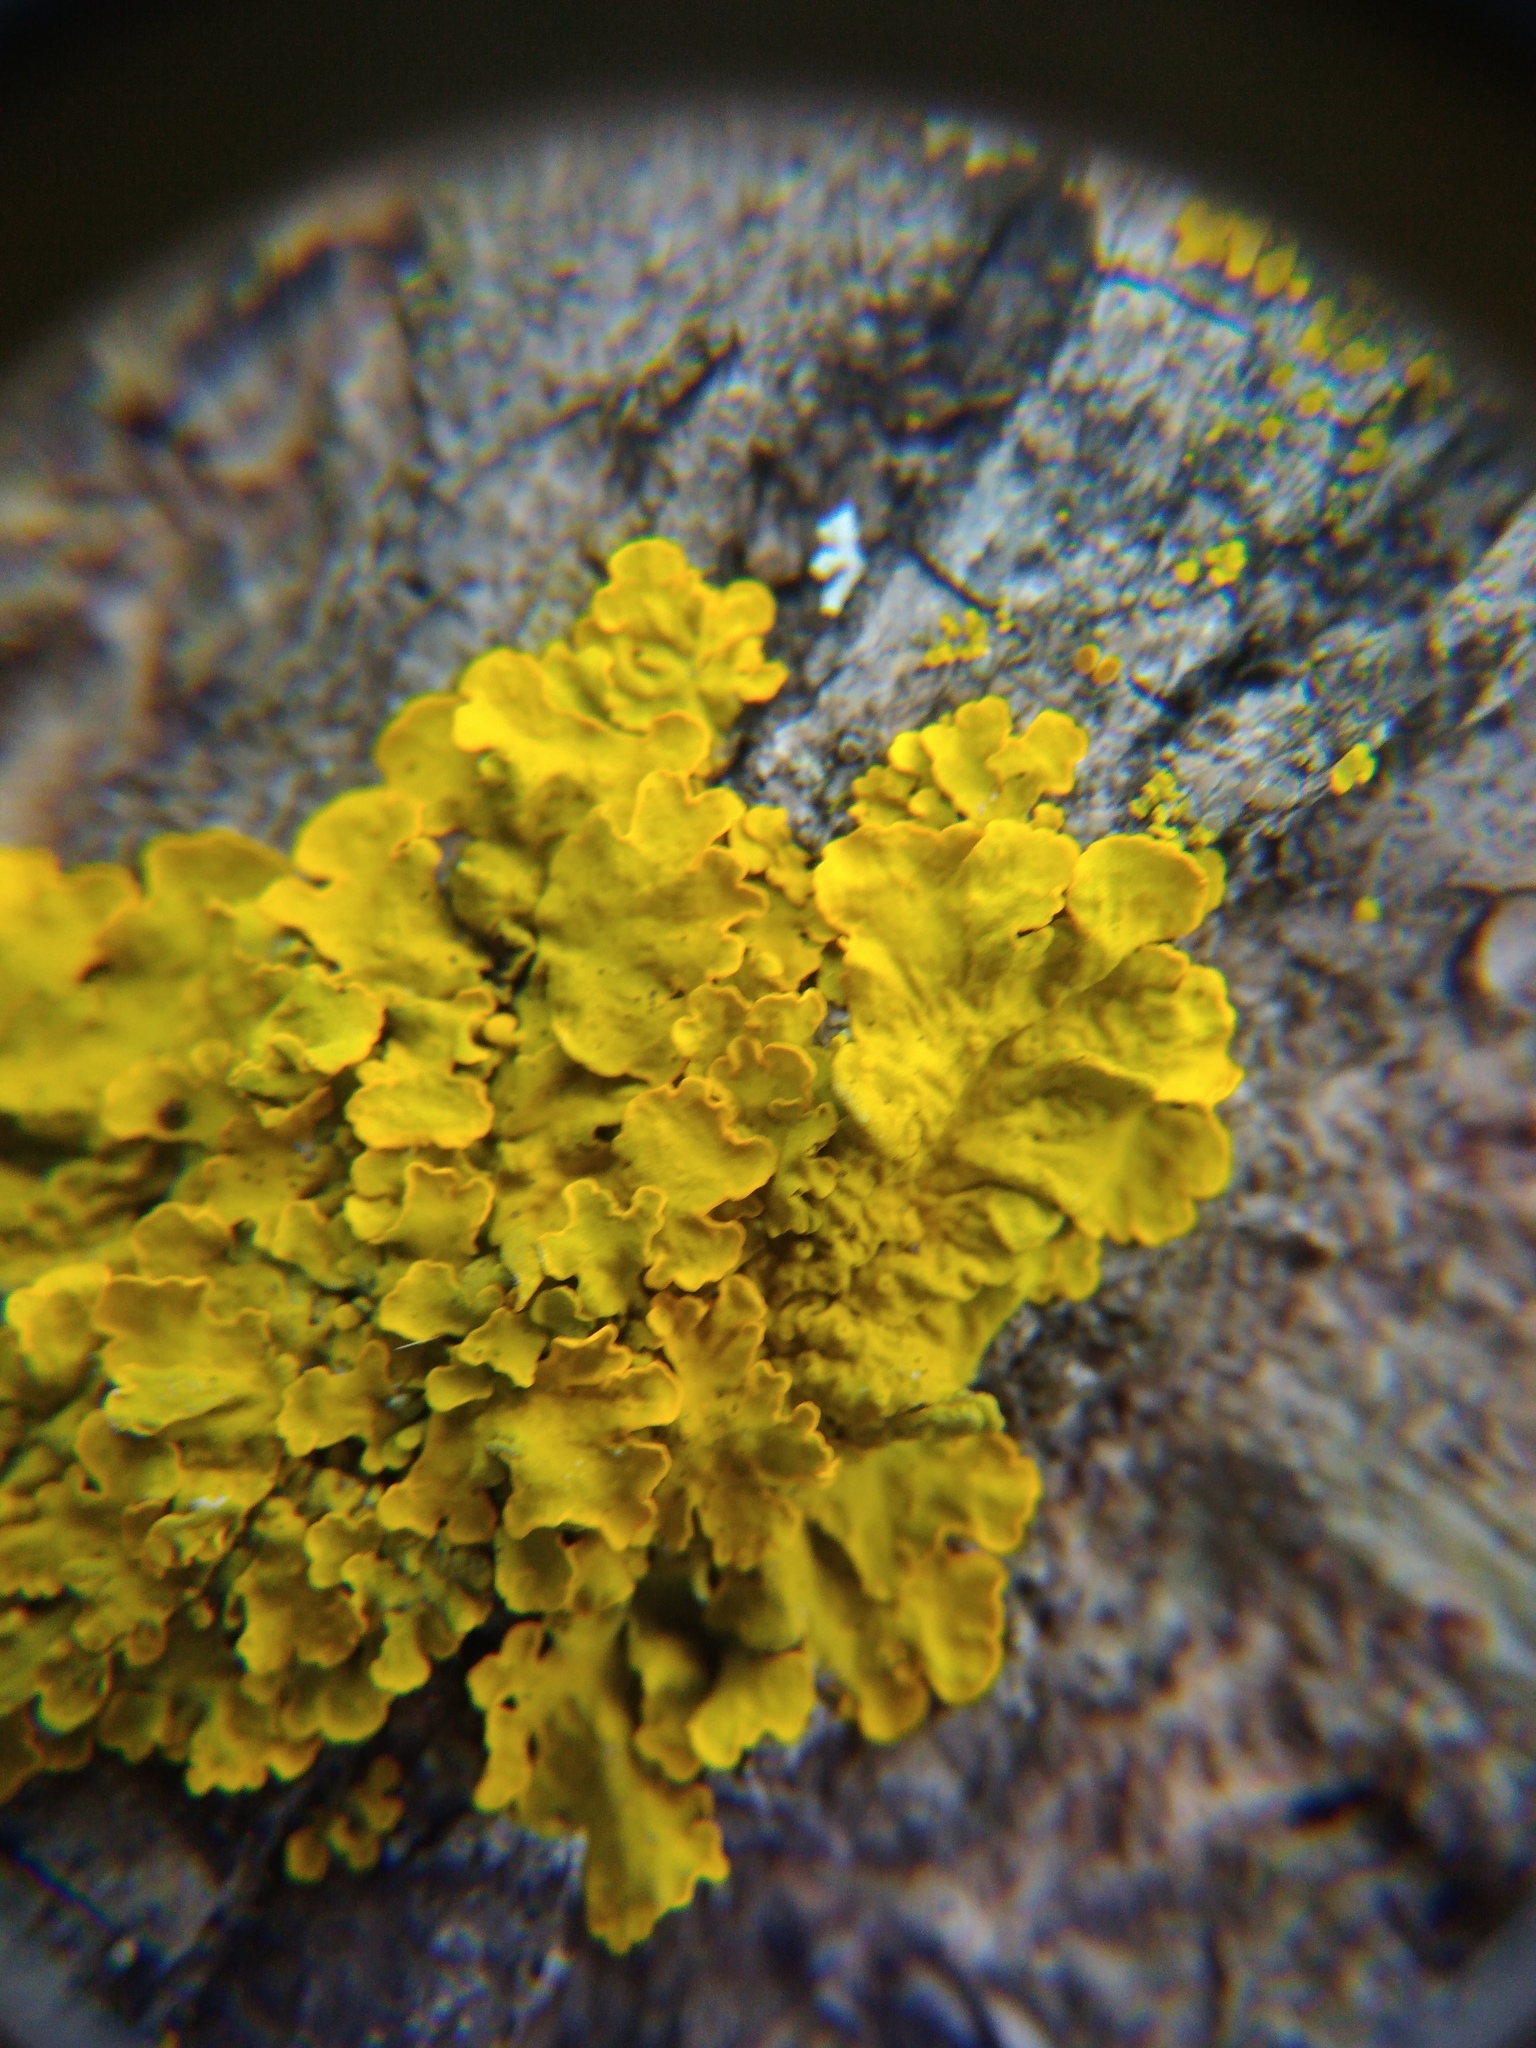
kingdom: Fungi
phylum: Ascomycota
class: Lecanoromycetes
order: Teloschistales
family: Teloschistaceae
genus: Xanthoria
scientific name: Xanthoria parietina
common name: Common orange lichen
